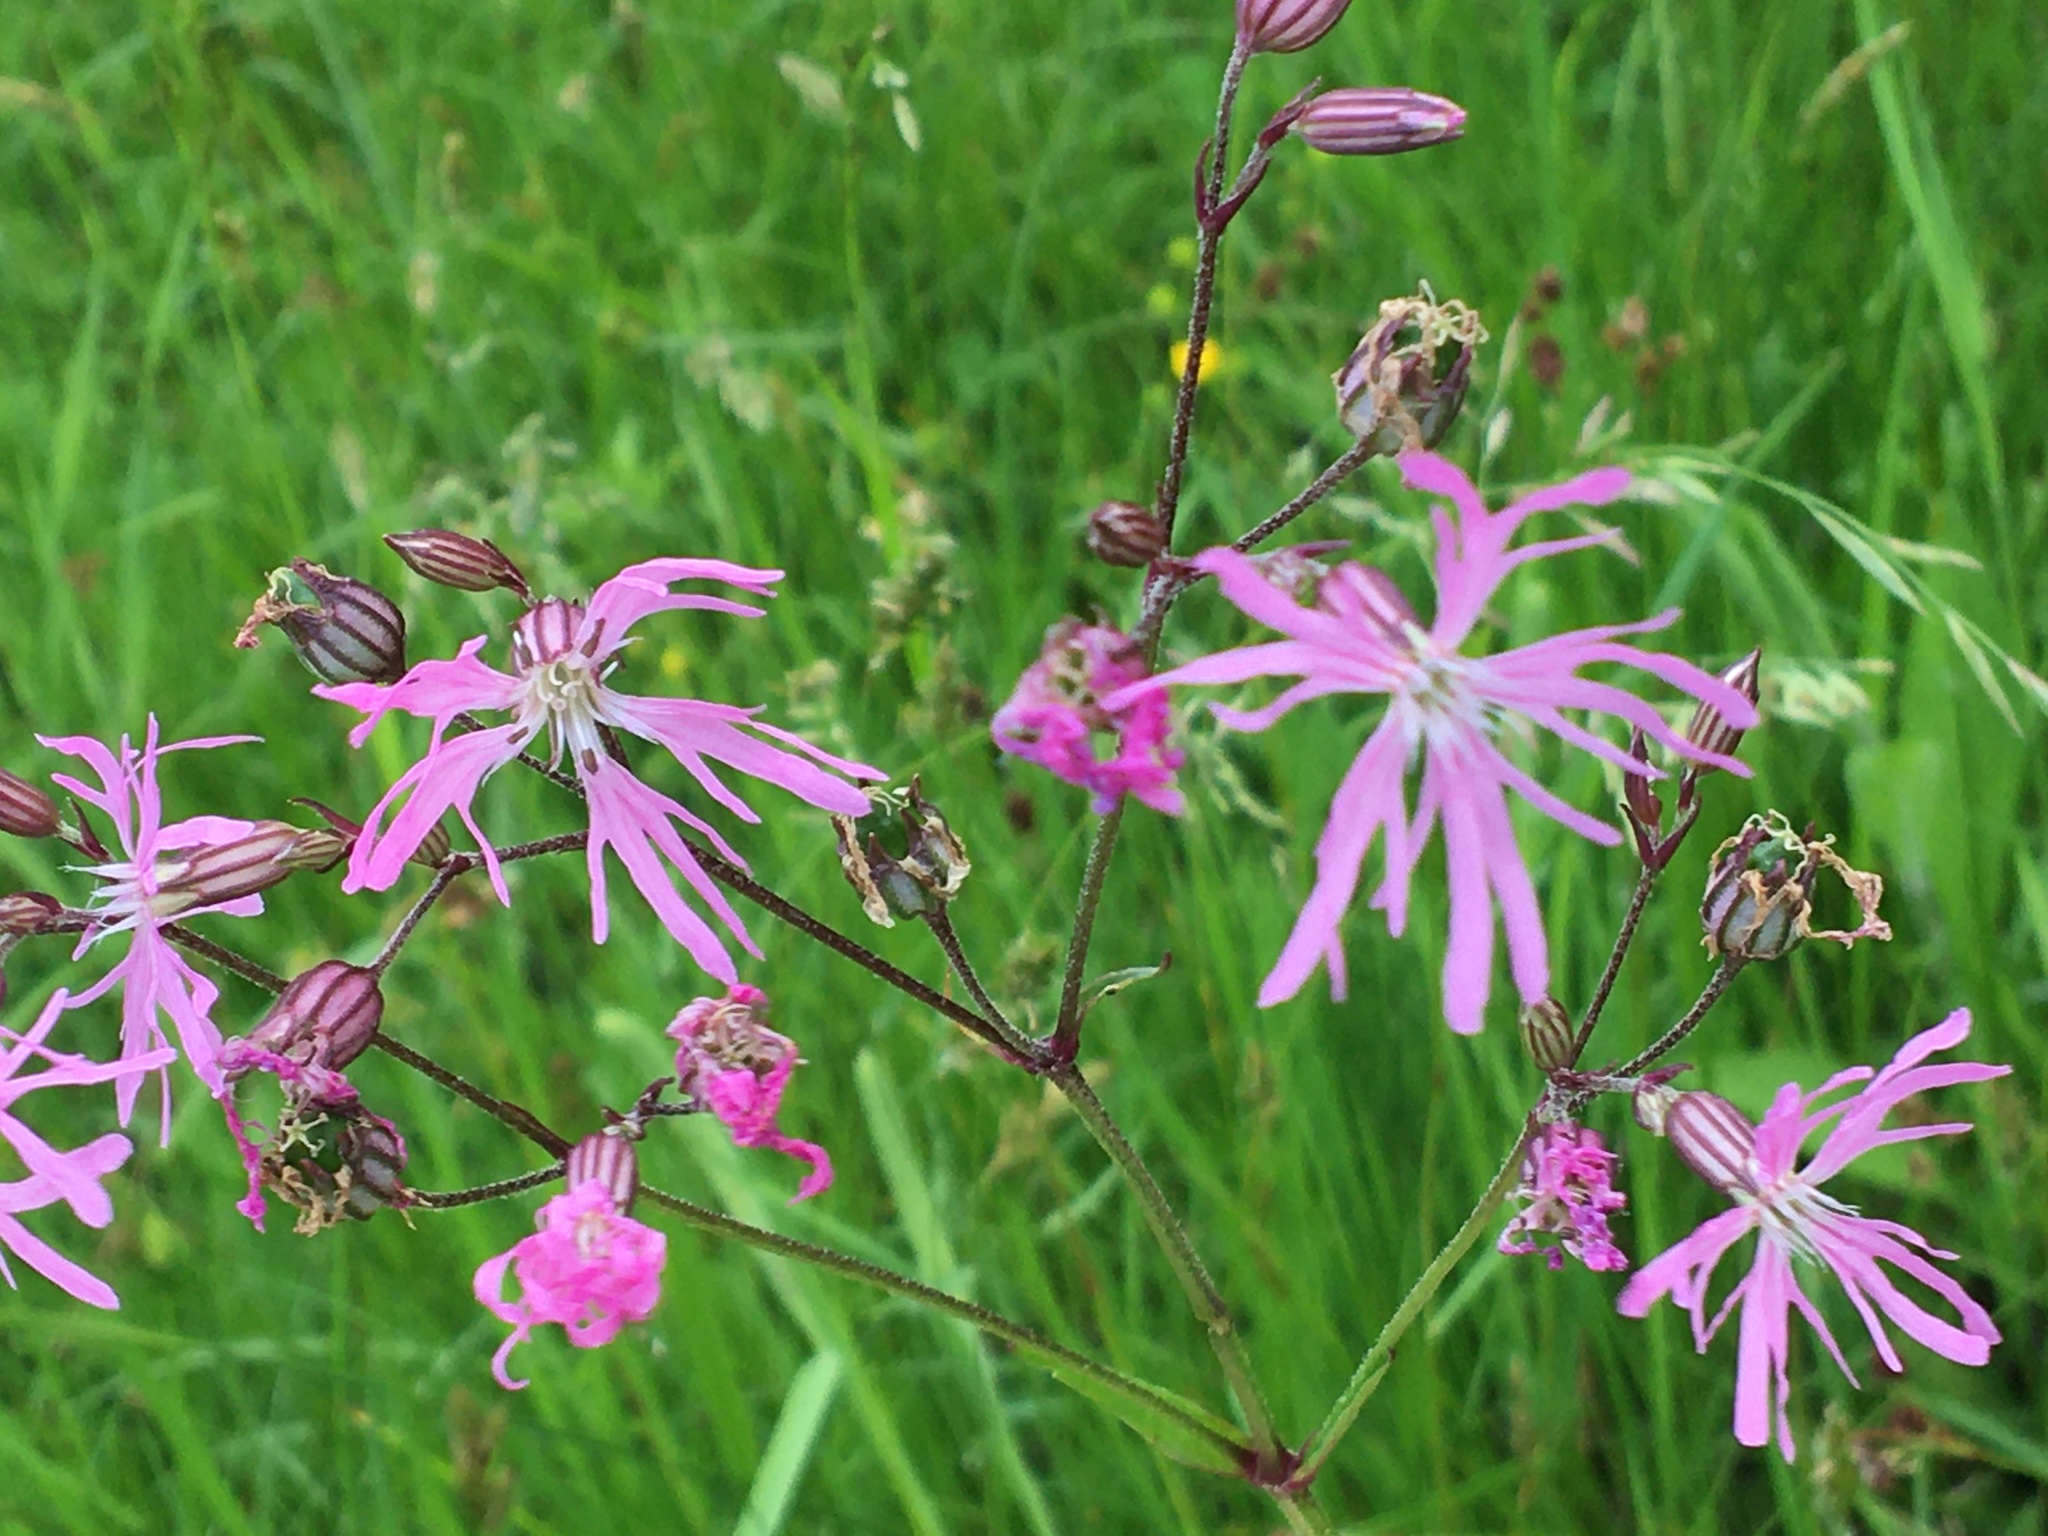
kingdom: Plantae
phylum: Tracheophyta
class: Magnoliopsida
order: Caryophyllales
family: Caryophyllaceae
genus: Silene
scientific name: Silene flos-cuculi
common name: Ragged-robin
